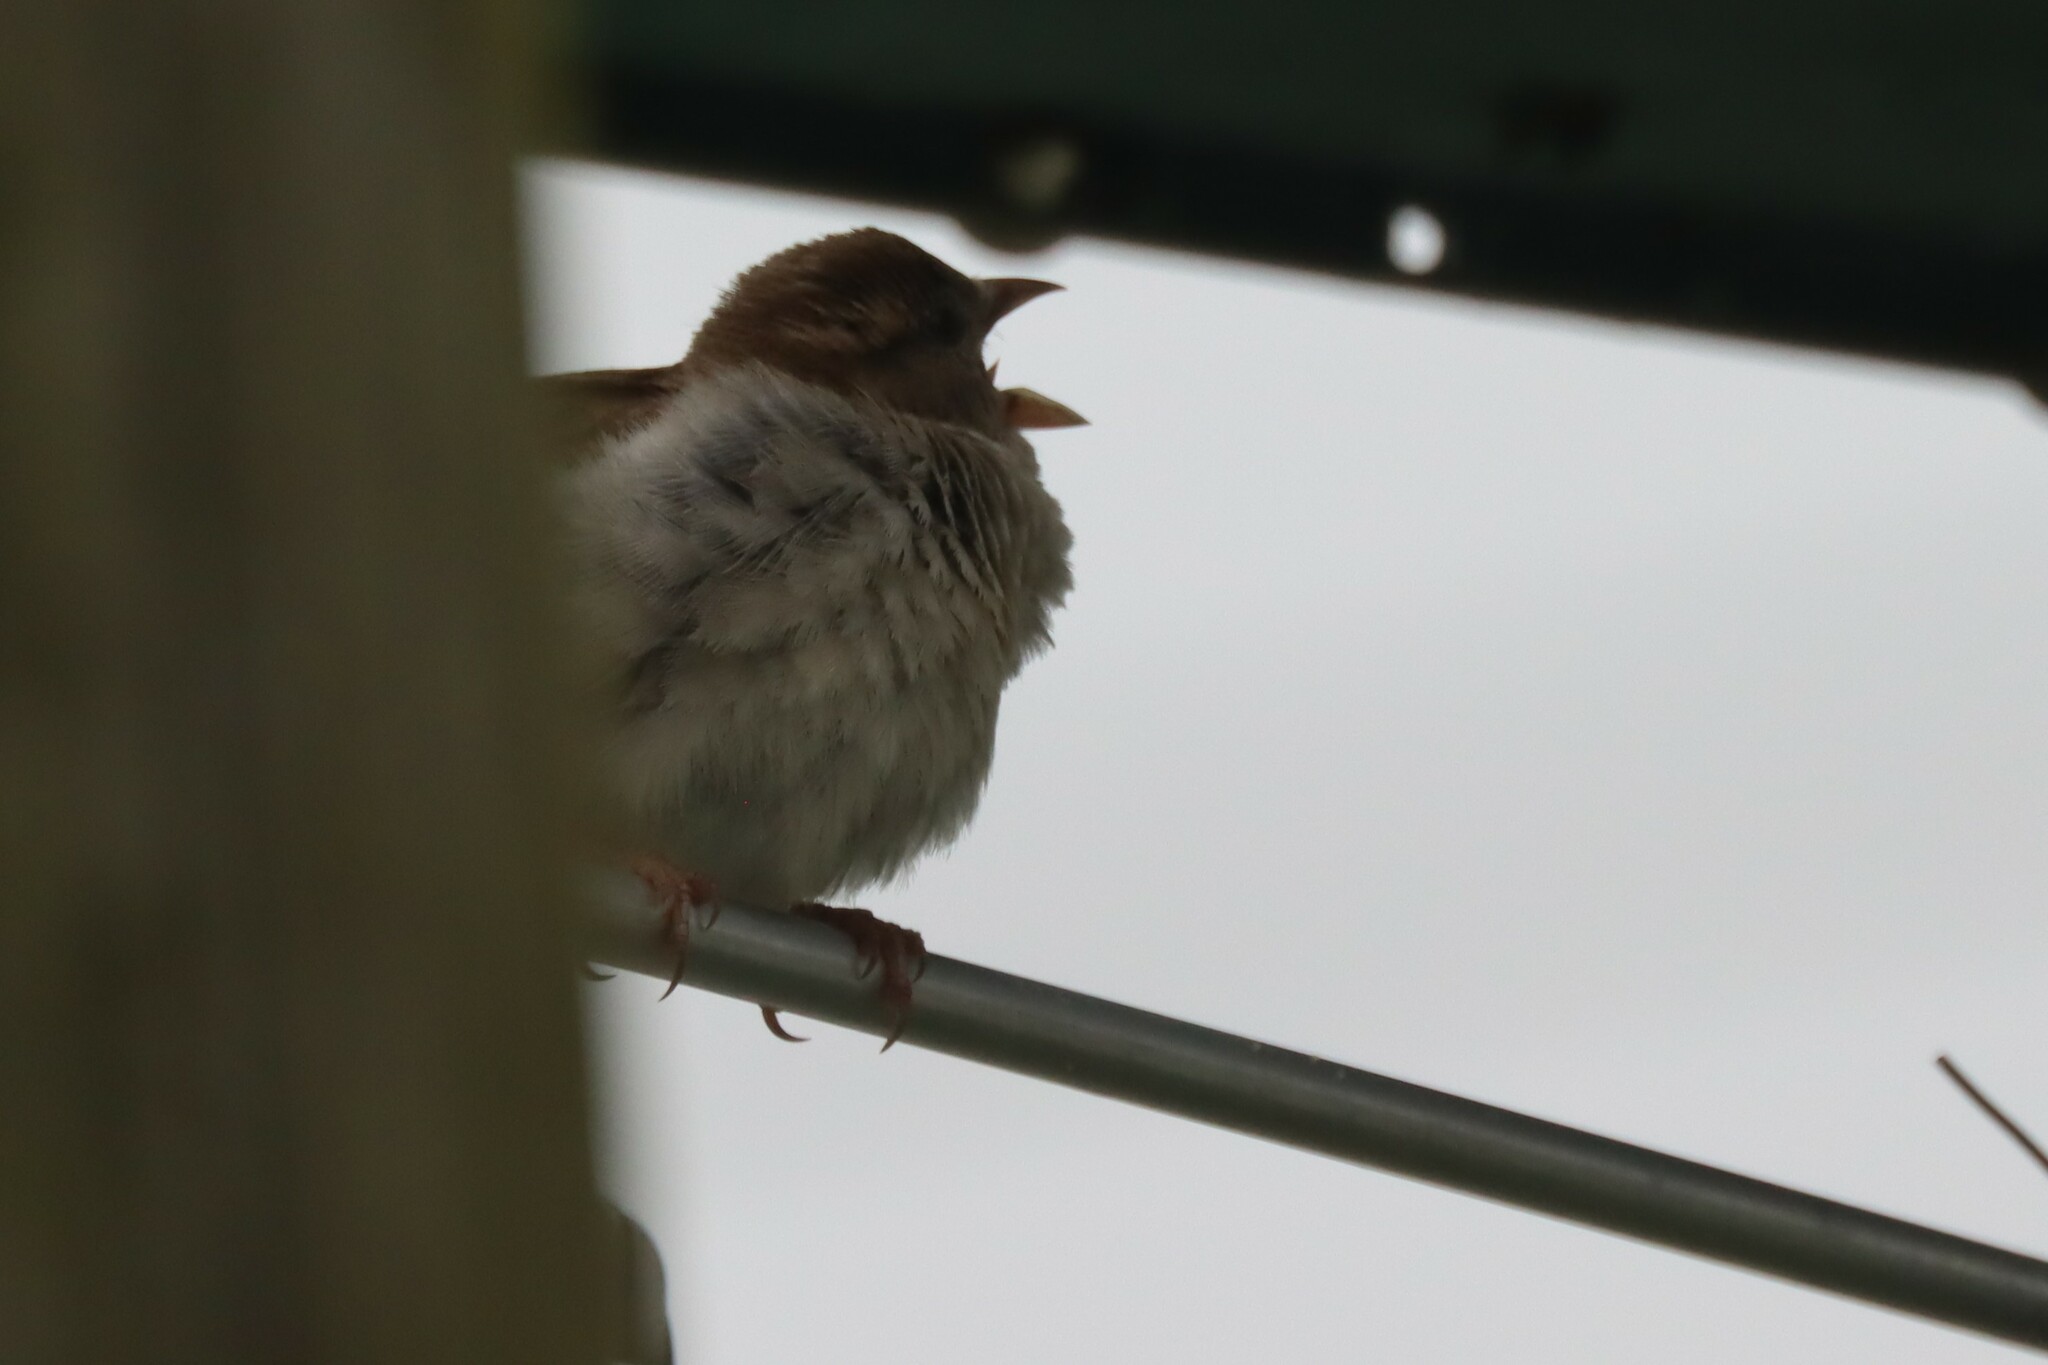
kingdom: Animalia
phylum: Chordata
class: Aves
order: Passeriformes
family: Passeridae
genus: Passer
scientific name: Passer domesticus
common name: House sparrow
